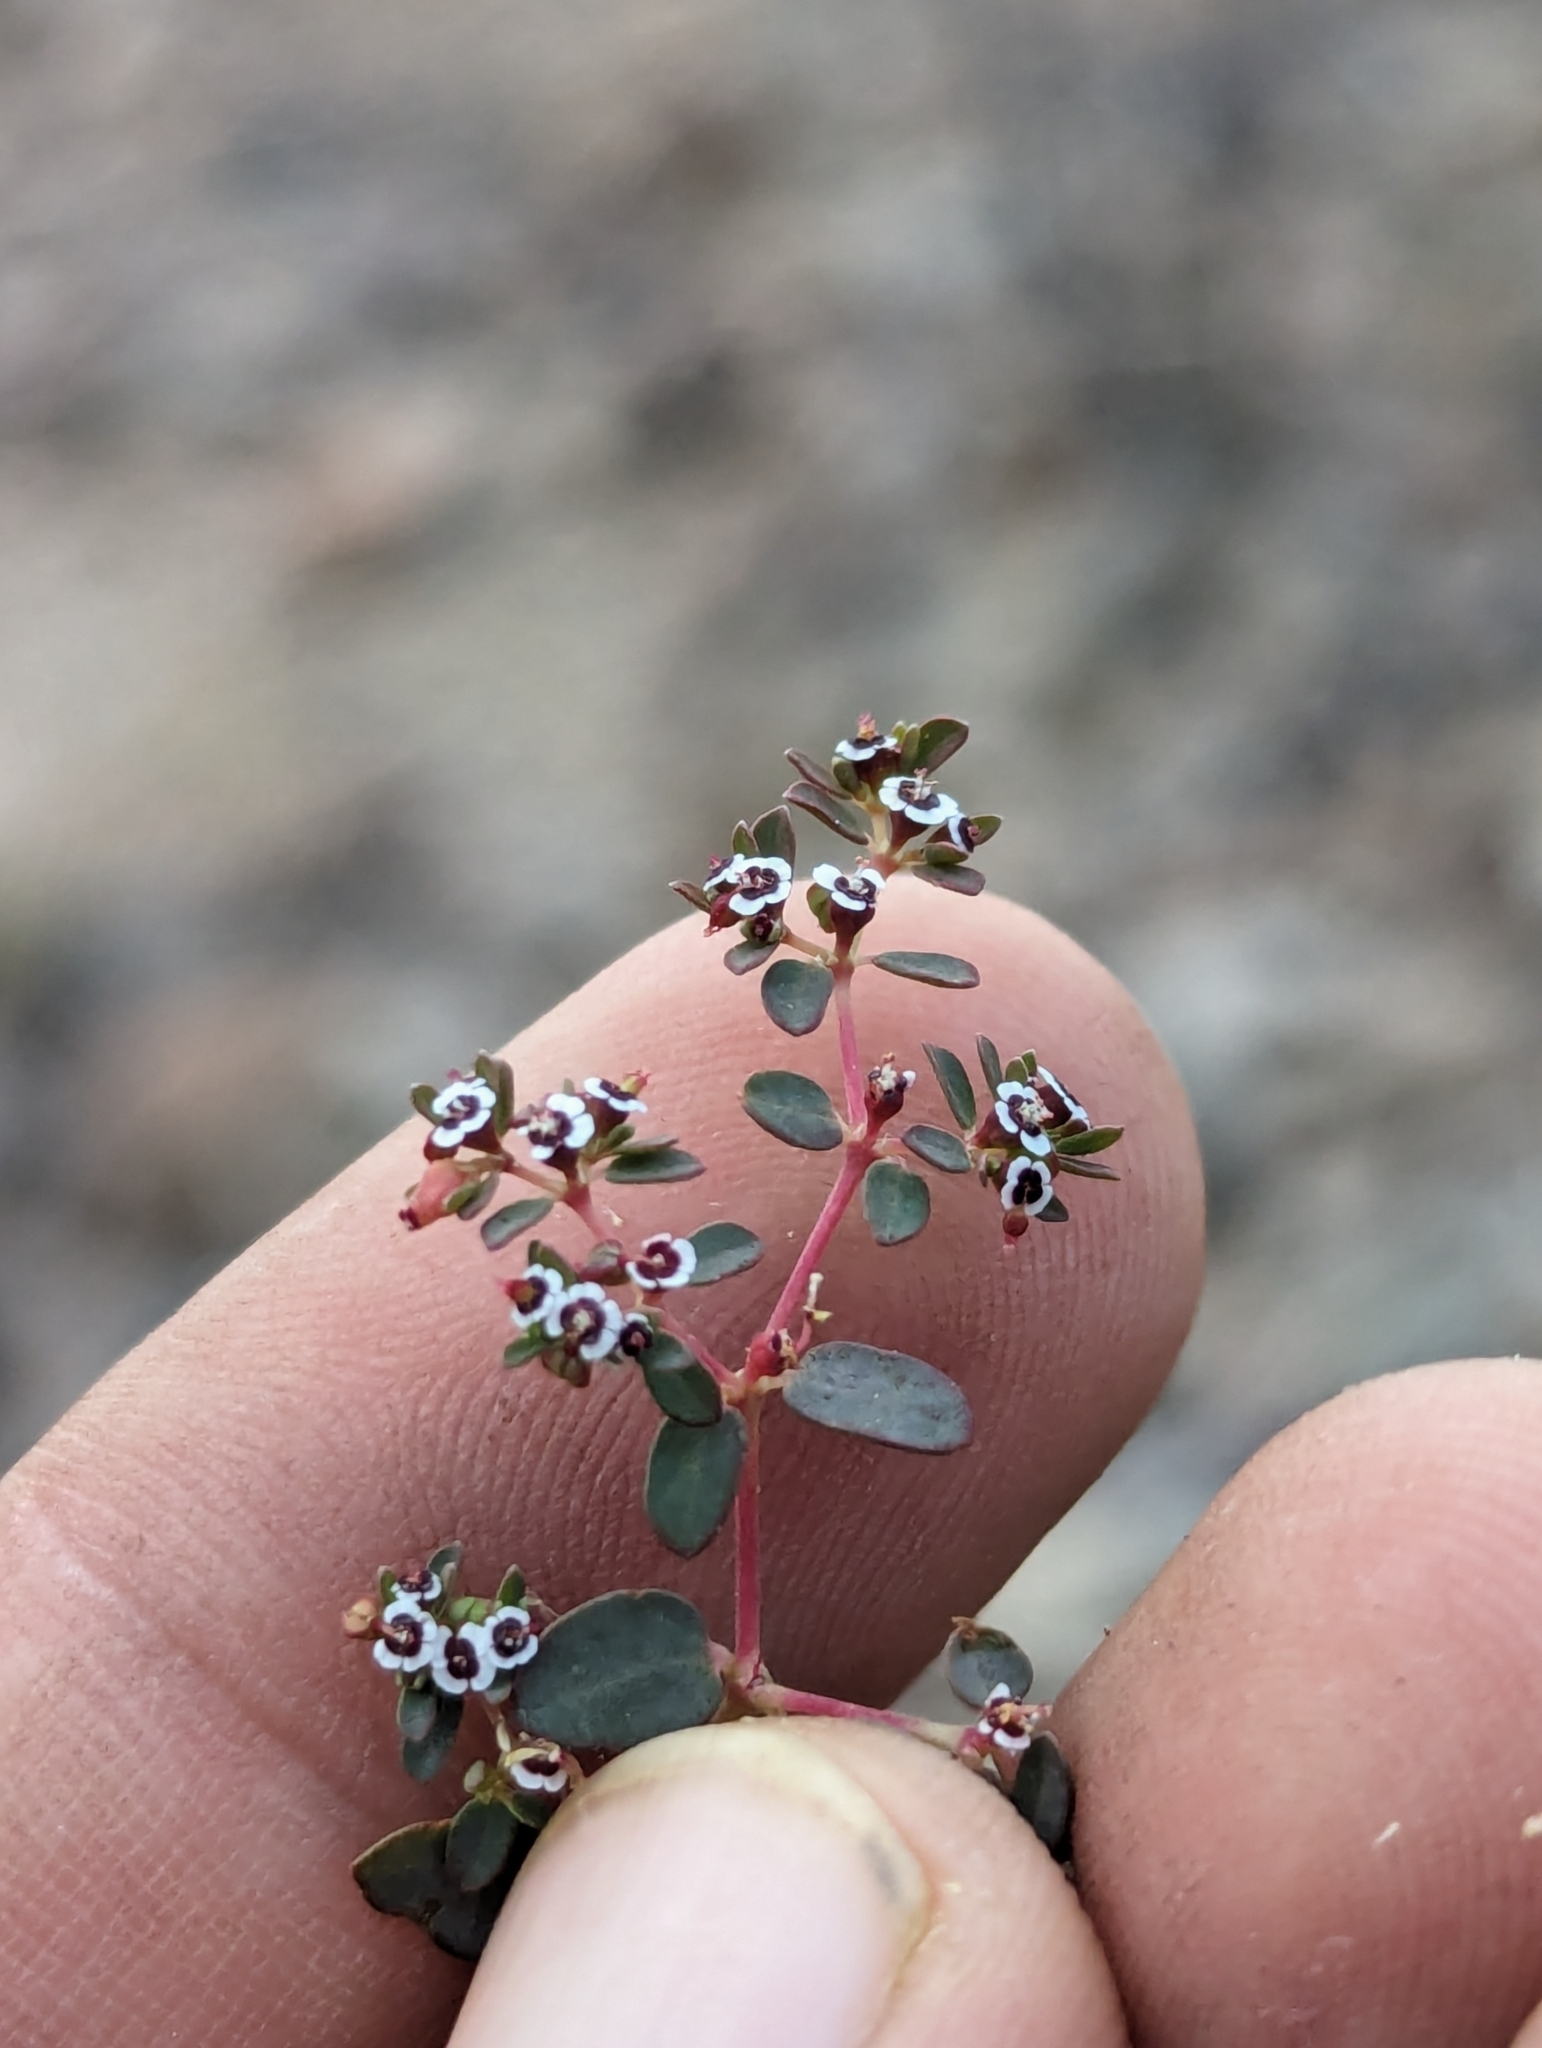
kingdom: Plantae
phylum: Tracheophyta
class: Magnoliopsida
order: Malpighiales
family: Euphorbiaceae
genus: Euphorbia
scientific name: Euphorbia polycarpa
